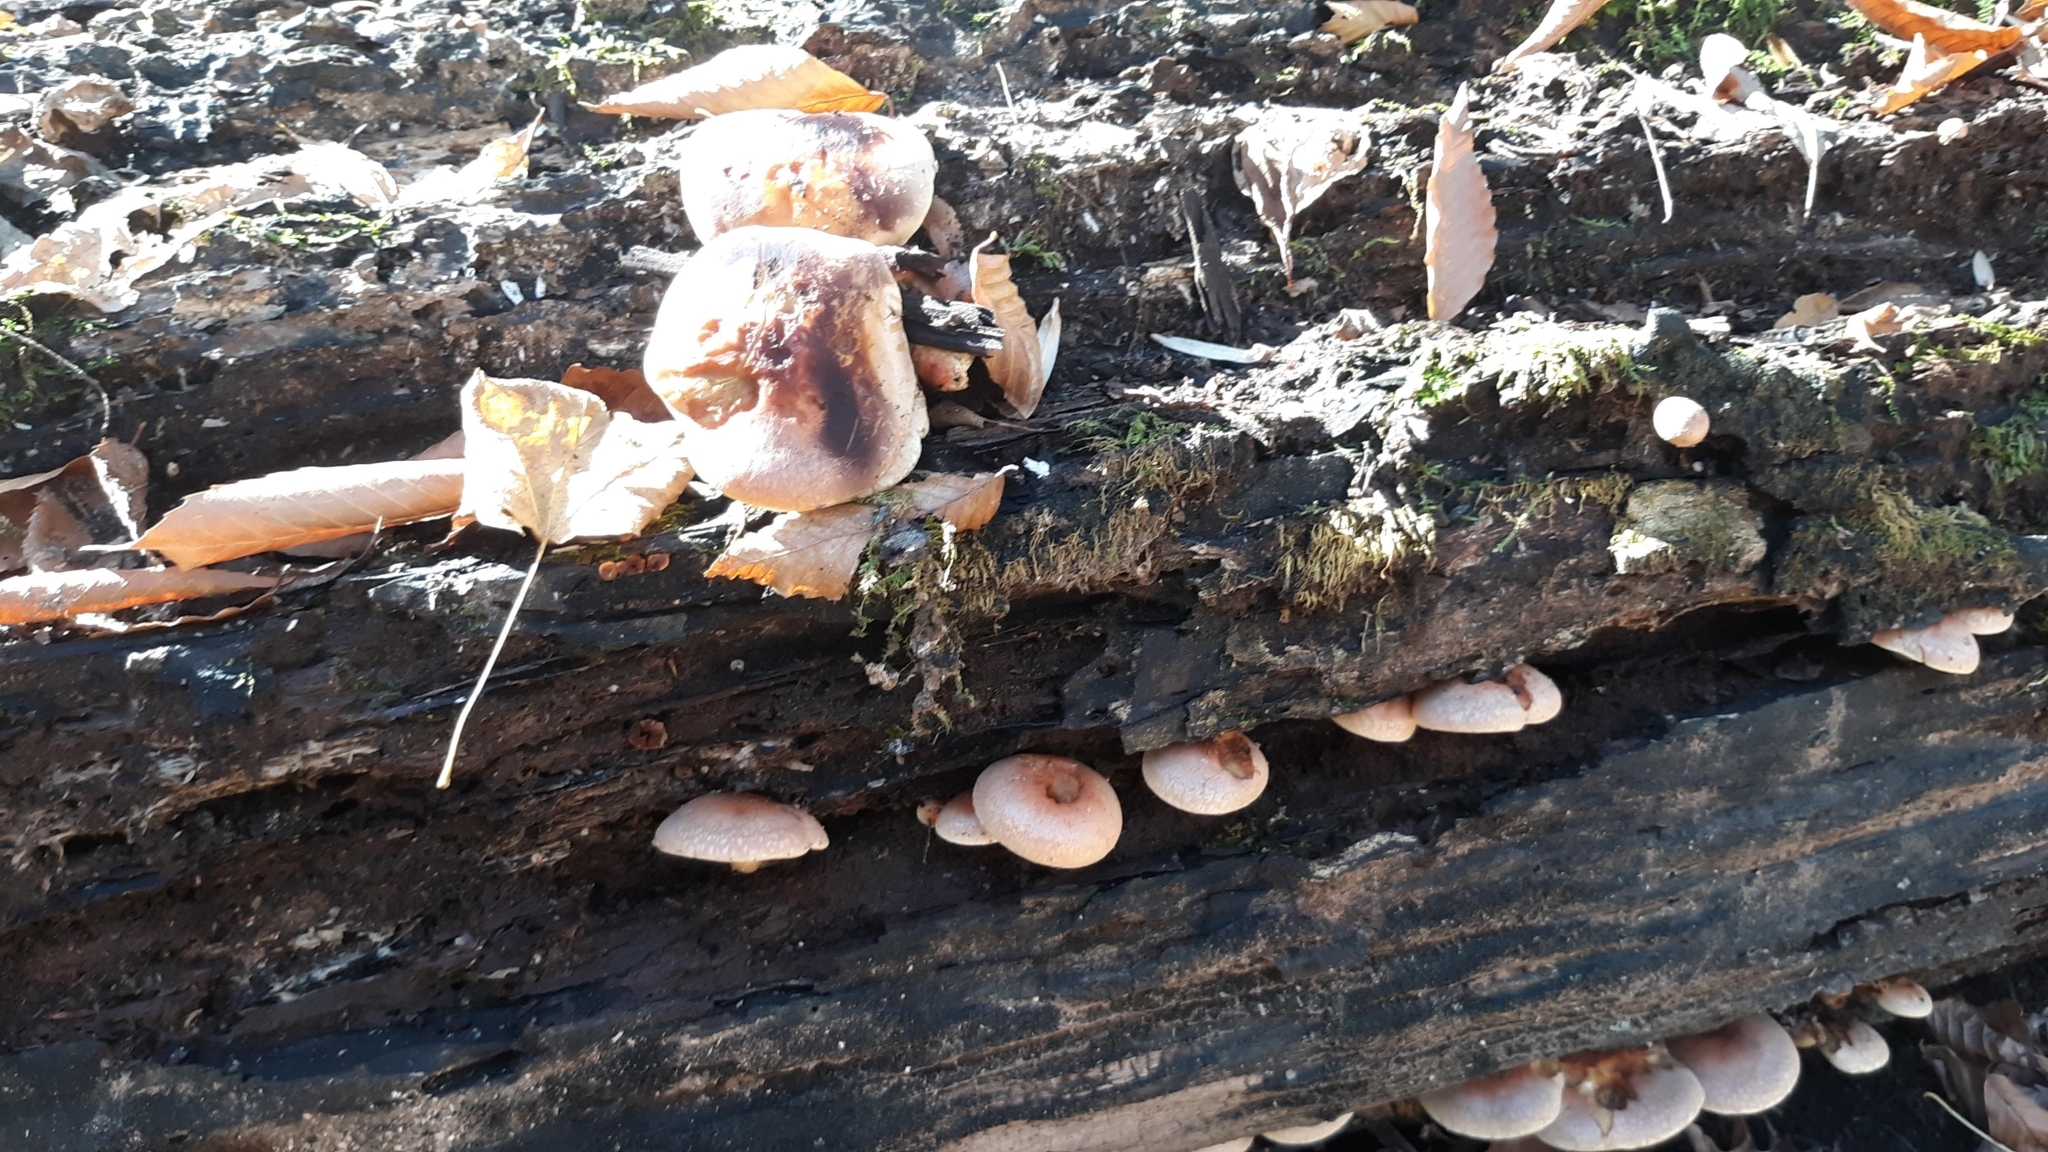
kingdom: Fungi
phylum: Basidiomycota
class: Agaricomycetes
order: Agaricales
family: Strophariaceae
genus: Hypholoma
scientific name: Hypholoma lateritium
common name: Brick caps
